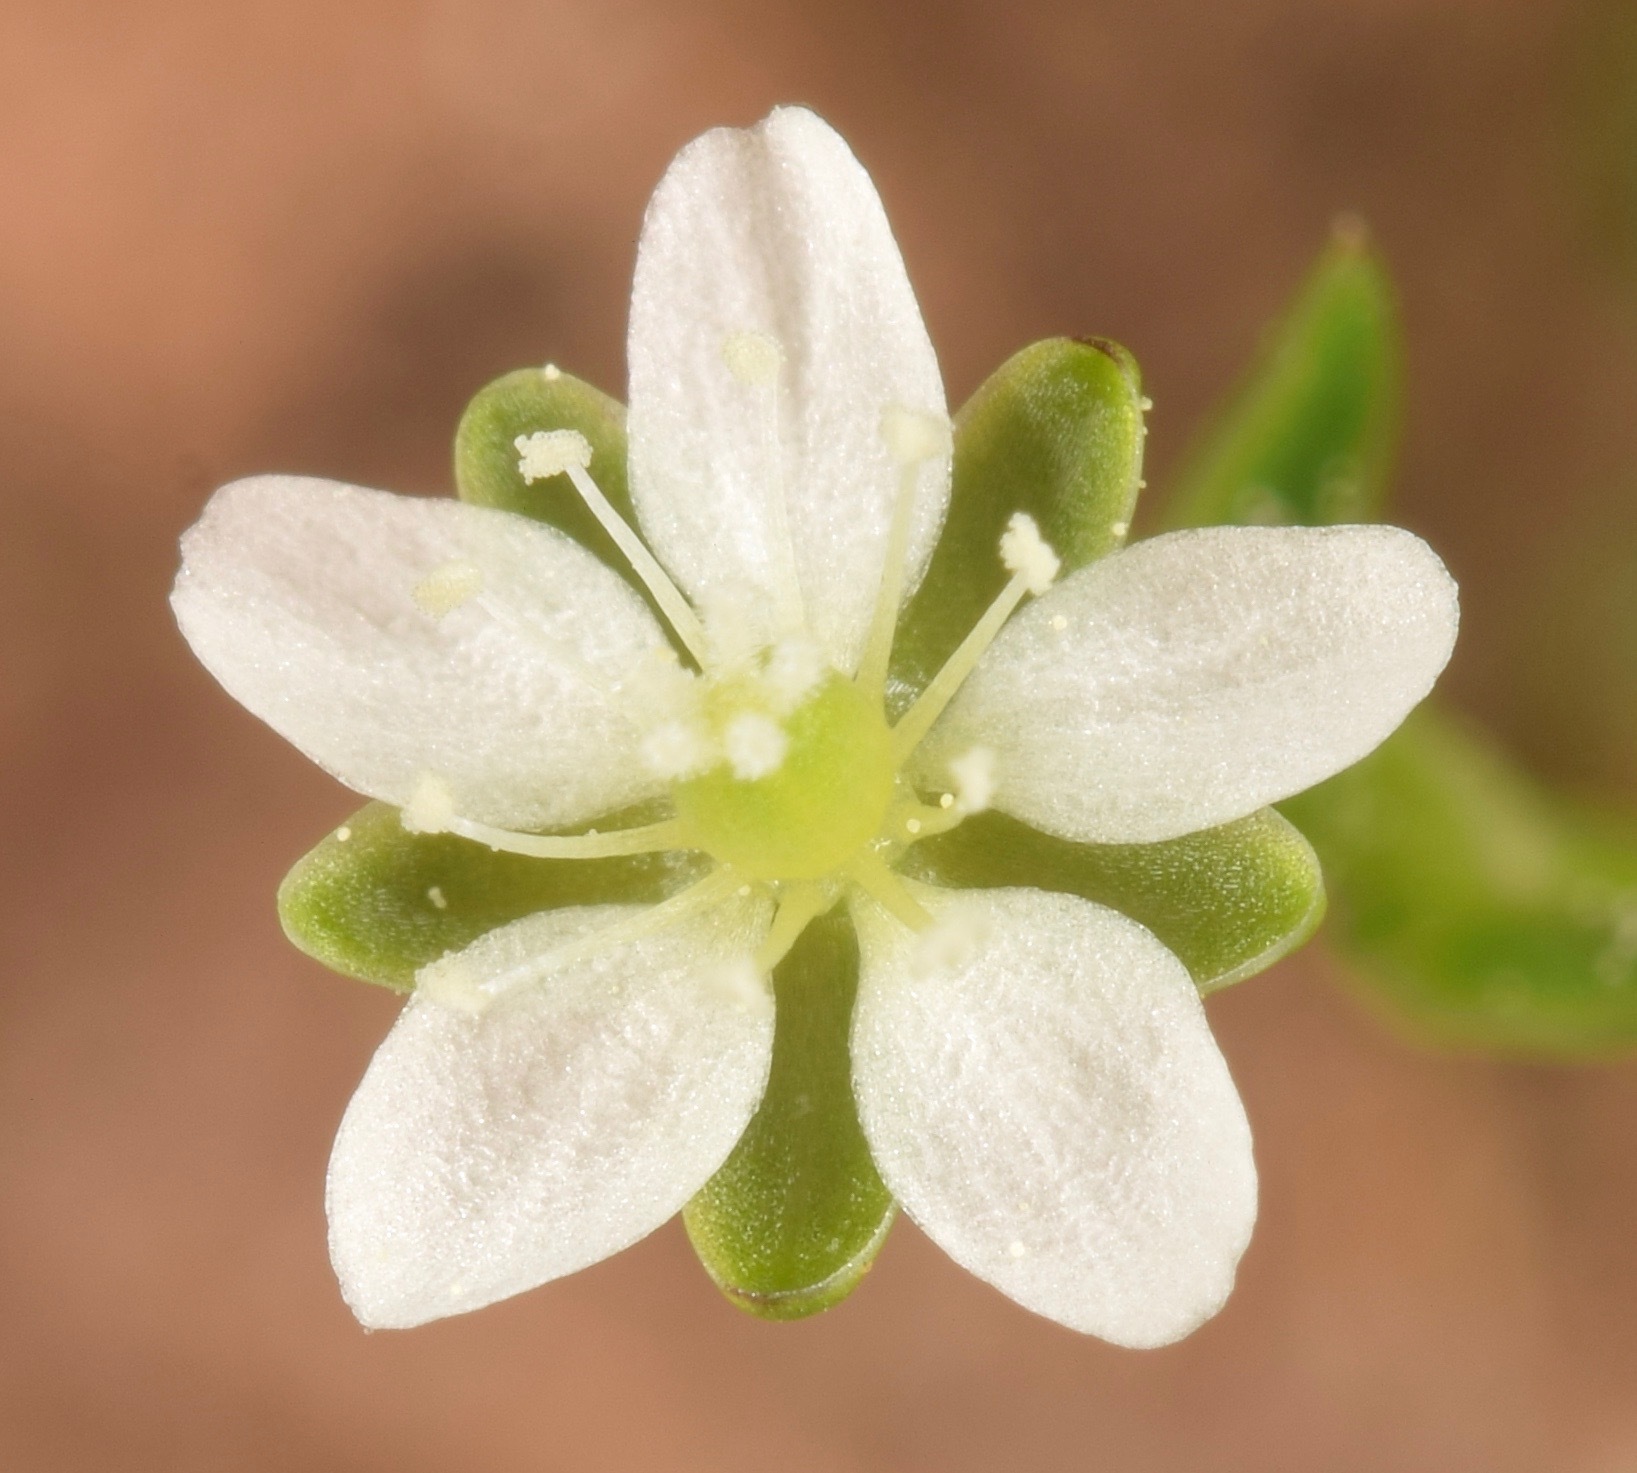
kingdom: Plantae
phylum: Tracheophyta
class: Magnoliopsida
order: Caryophyllales
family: Caryophyllaceae
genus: Sagina
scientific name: Sagina decumbens
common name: Decumbent pearlwort
